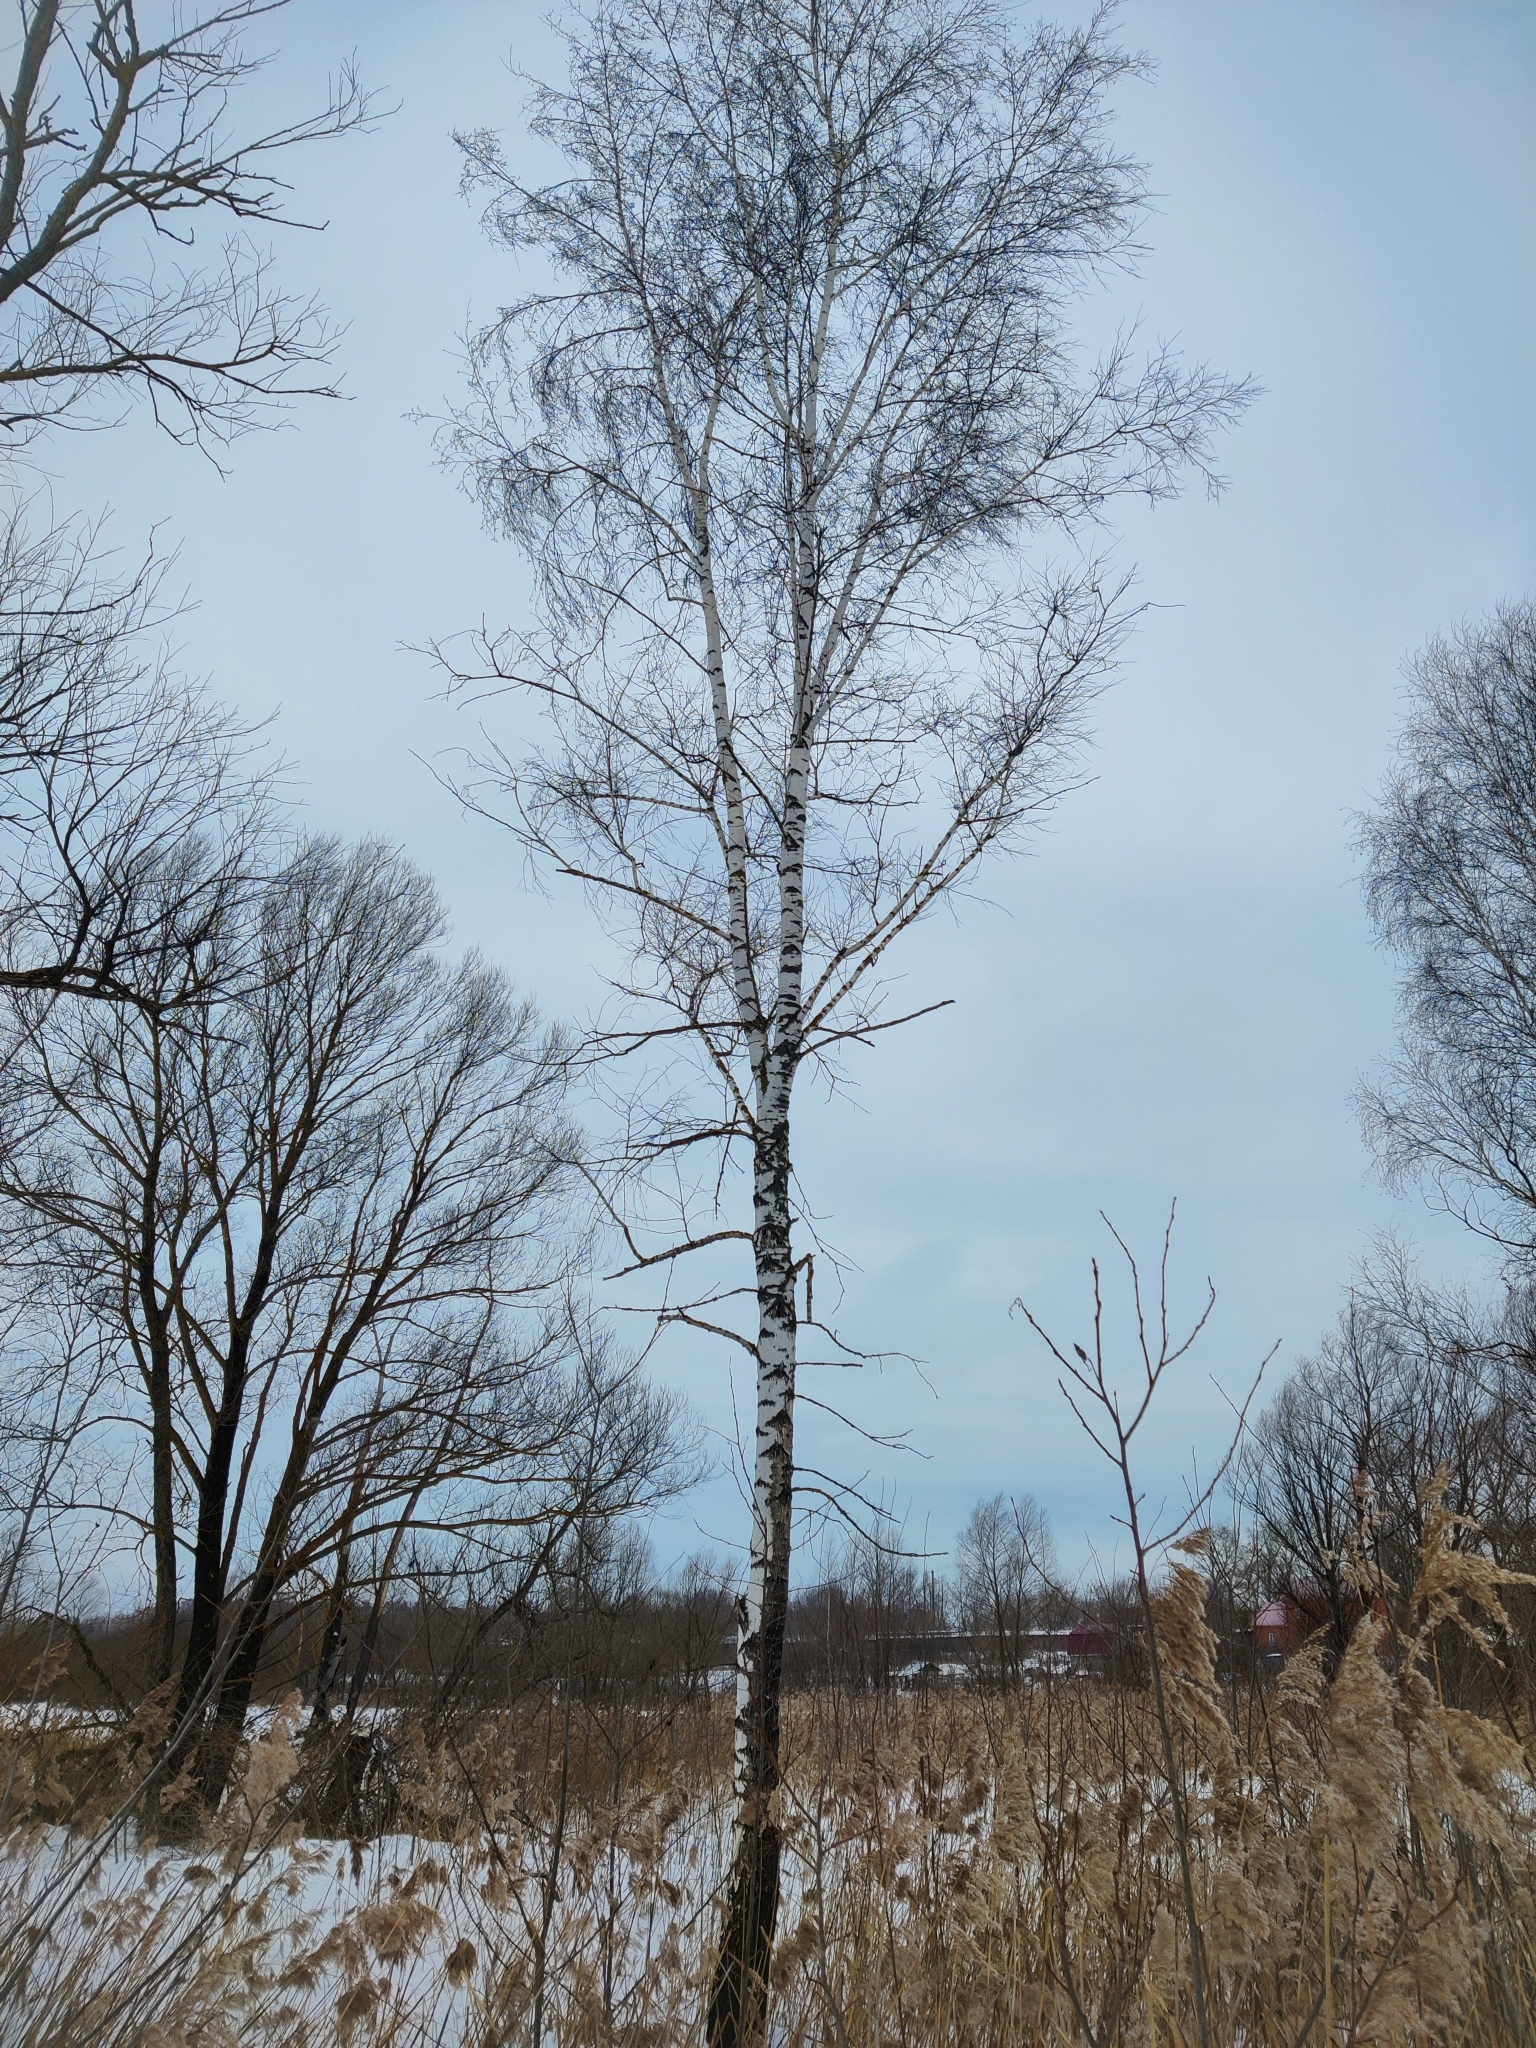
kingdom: Plantae
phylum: Tracheophyta
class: Magnoliopsida
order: Fagales
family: Betulaceae
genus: Betula
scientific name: Betula pendula
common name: Silver birch
